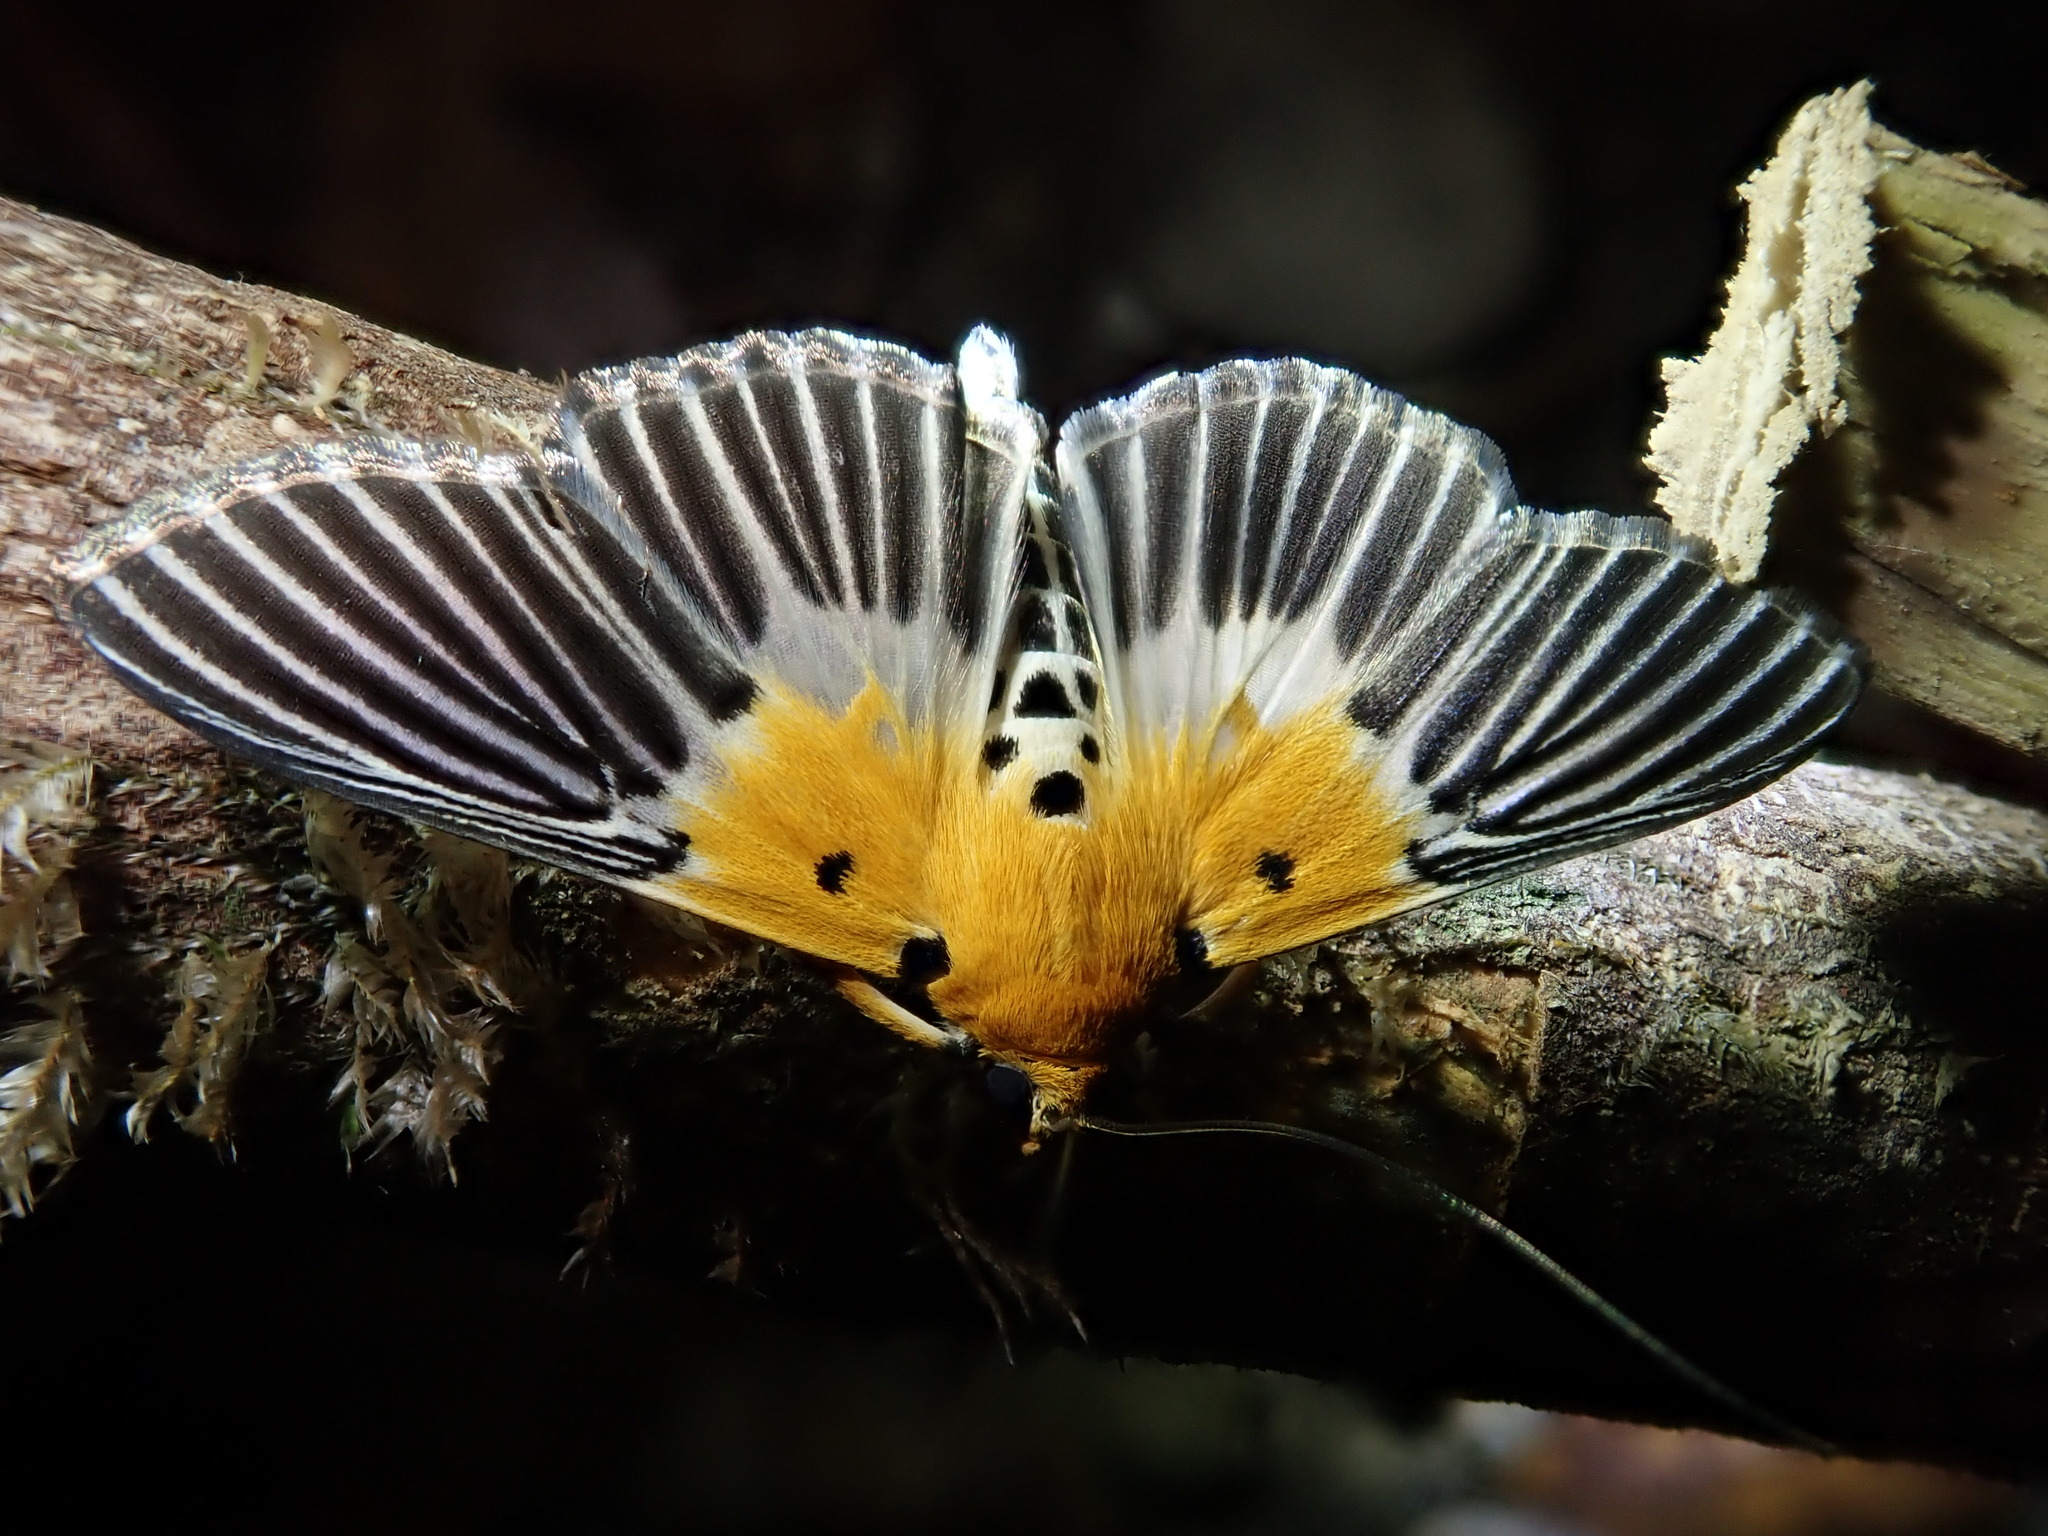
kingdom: Animalia
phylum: Arthropoda
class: Insecta
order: Lepidoptera
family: Crambidae
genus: Nevrina
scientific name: Nevrina procopia
